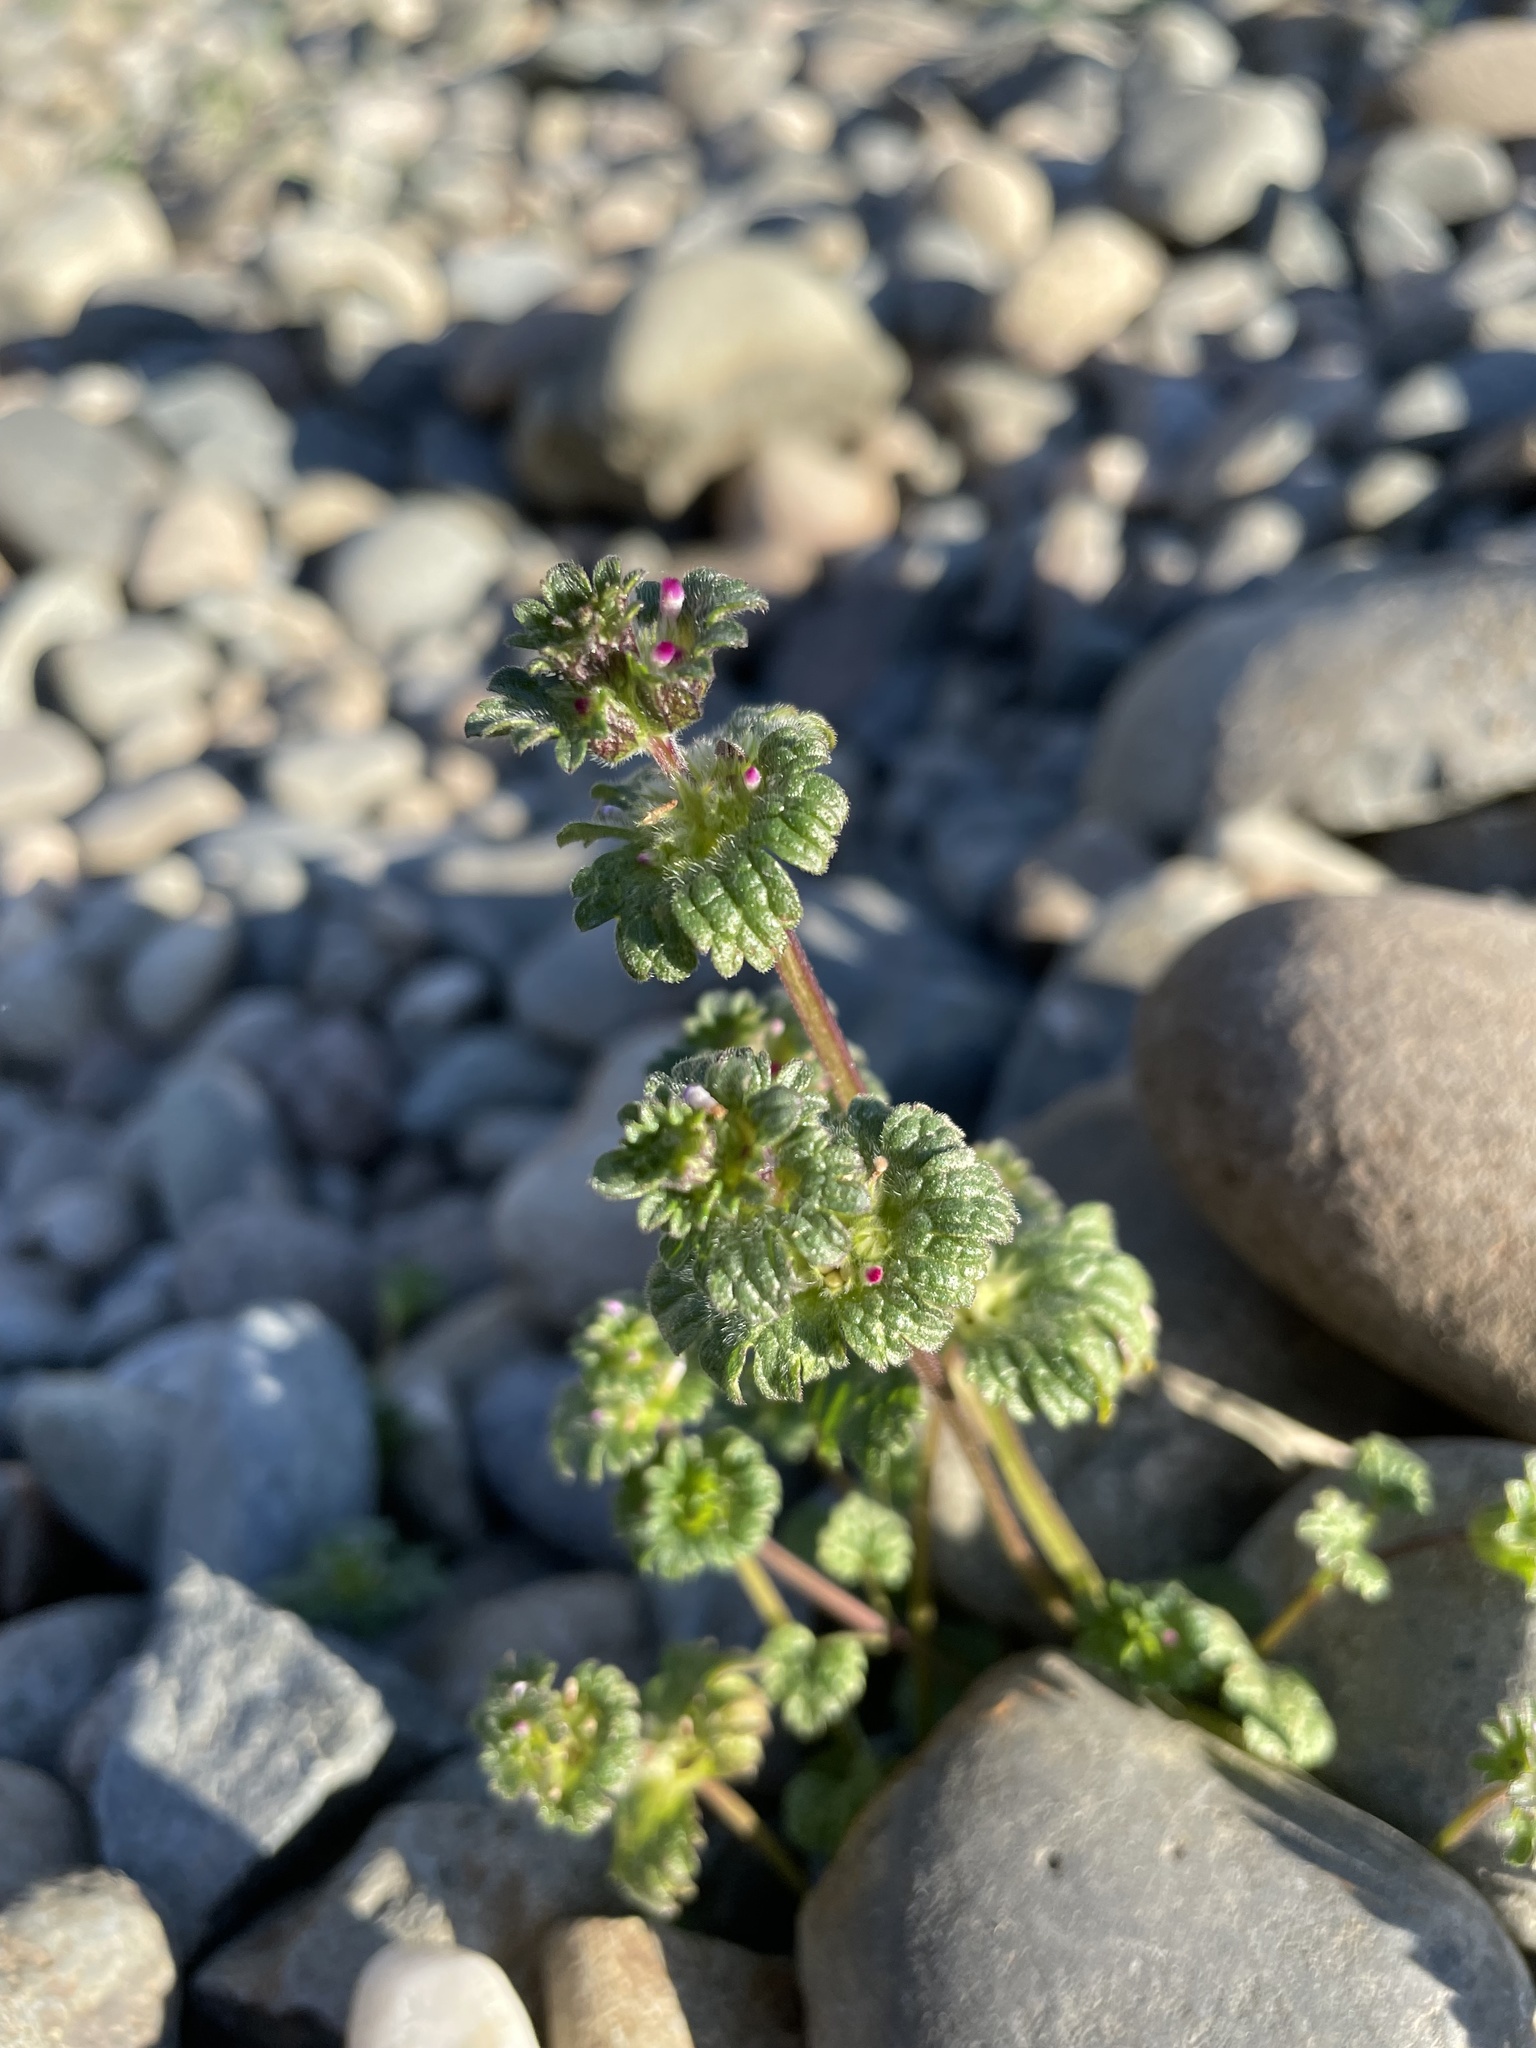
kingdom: Plantae
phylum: Tracheophyta
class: Magnoliopsida
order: Lamiales
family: Lamiaceae
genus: Lamium
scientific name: Lamium amplexicaule
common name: Henbit dead-nettle
